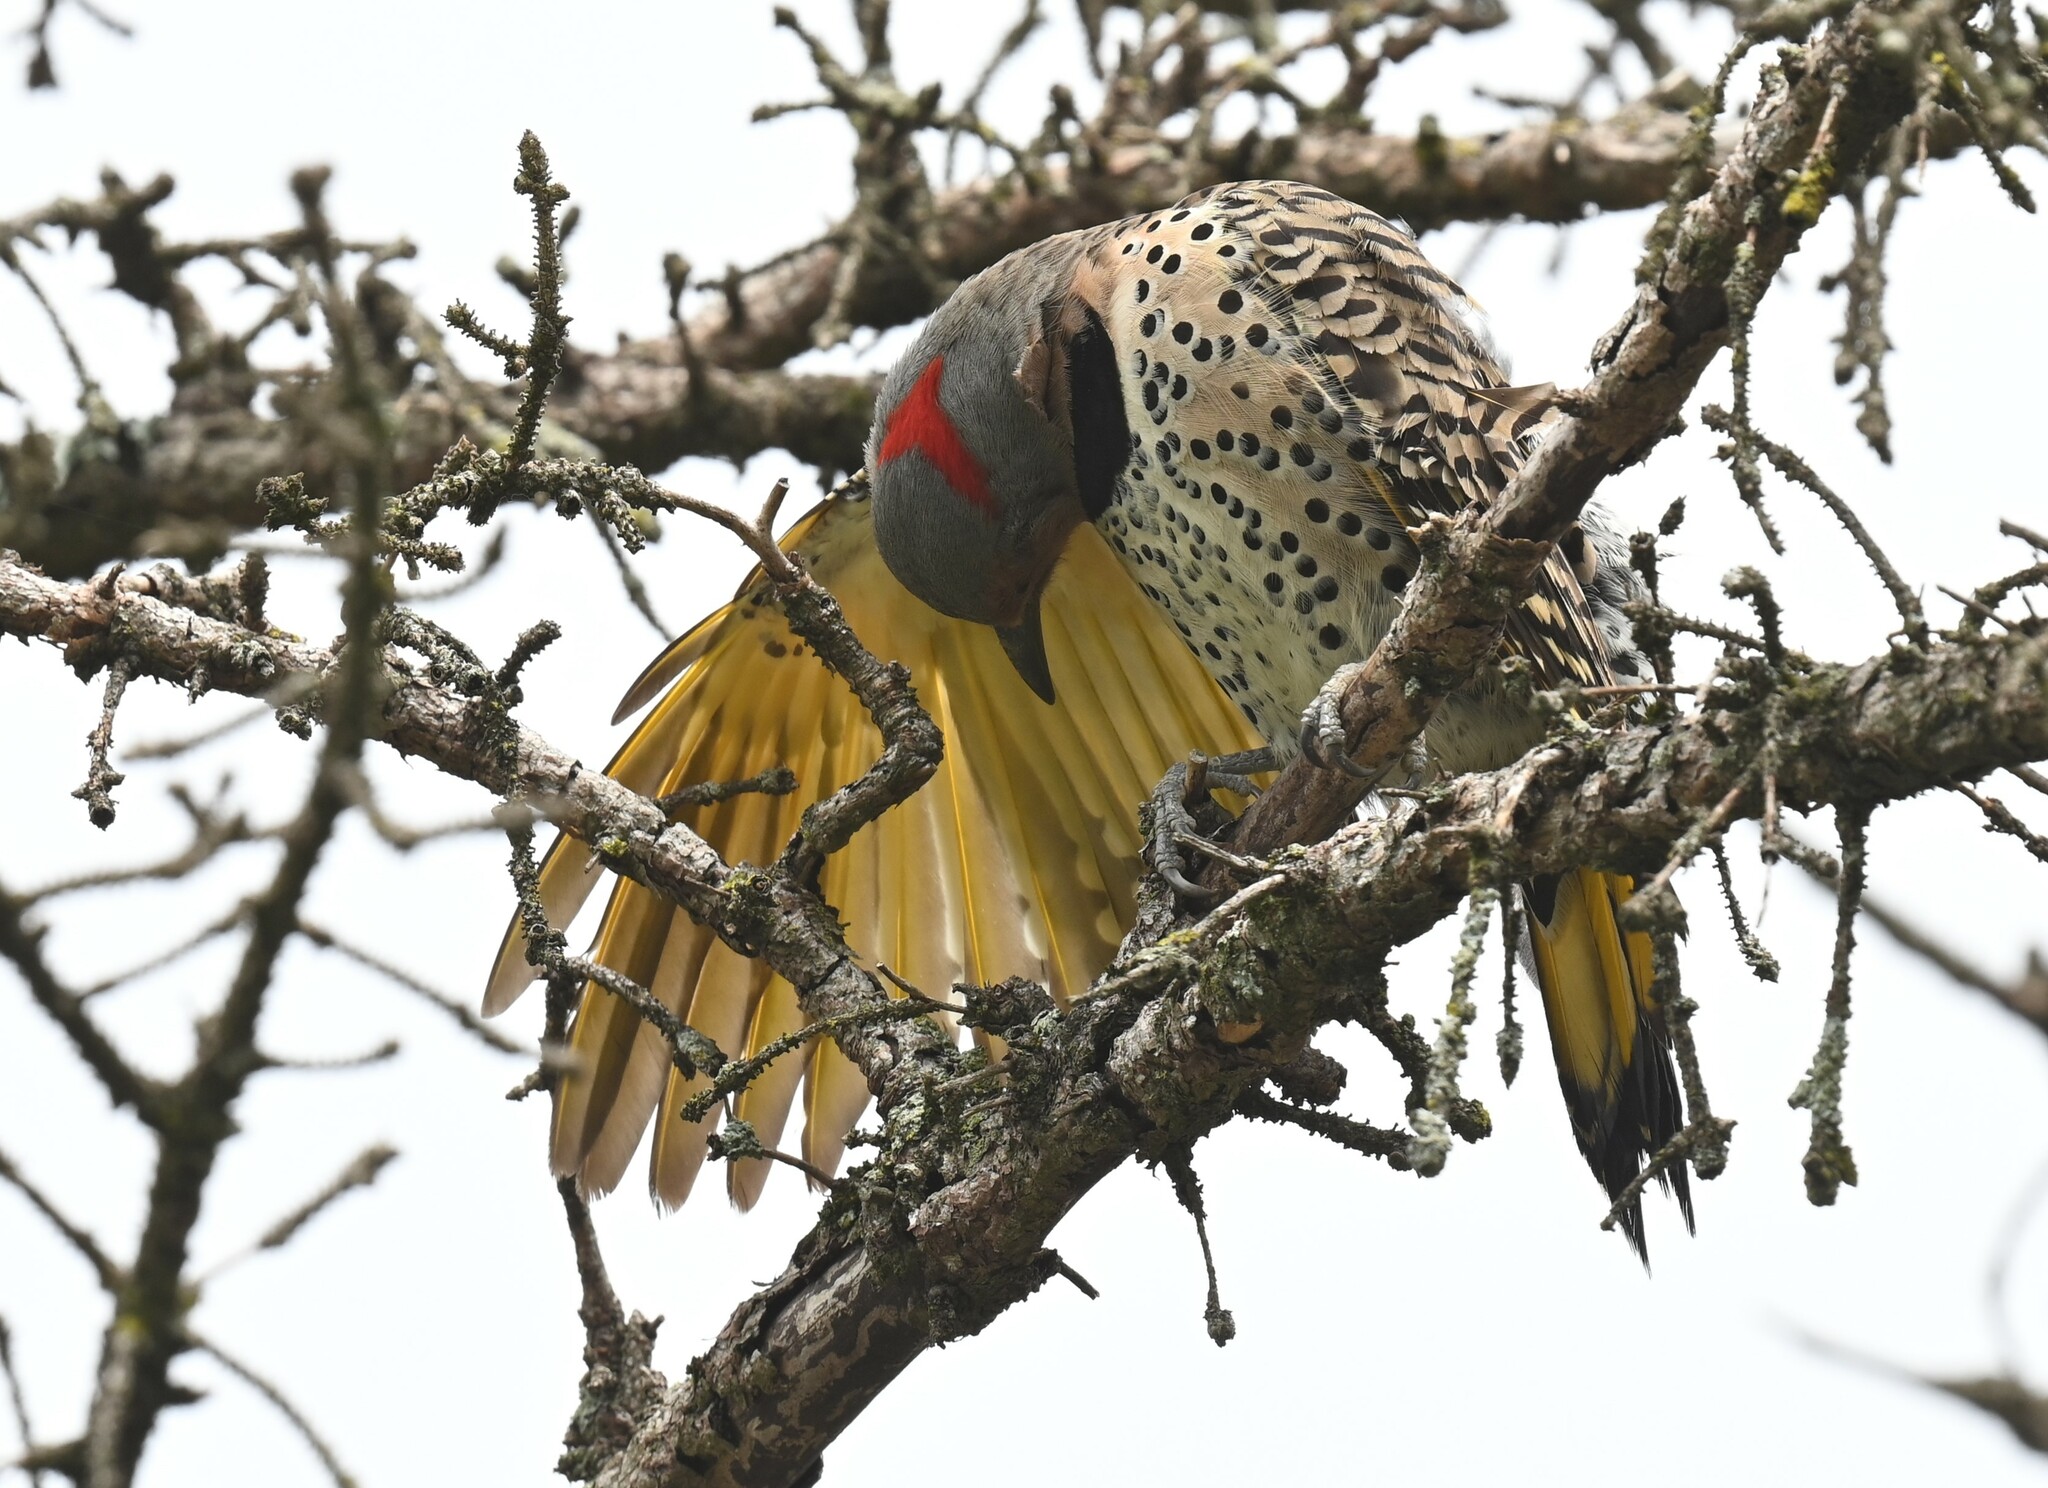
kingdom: Animalia
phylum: Chordata
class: Aves
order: Piciformes
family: Picidae
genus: Colaptes
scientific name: Colaptes auratus
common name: Northern flicker
